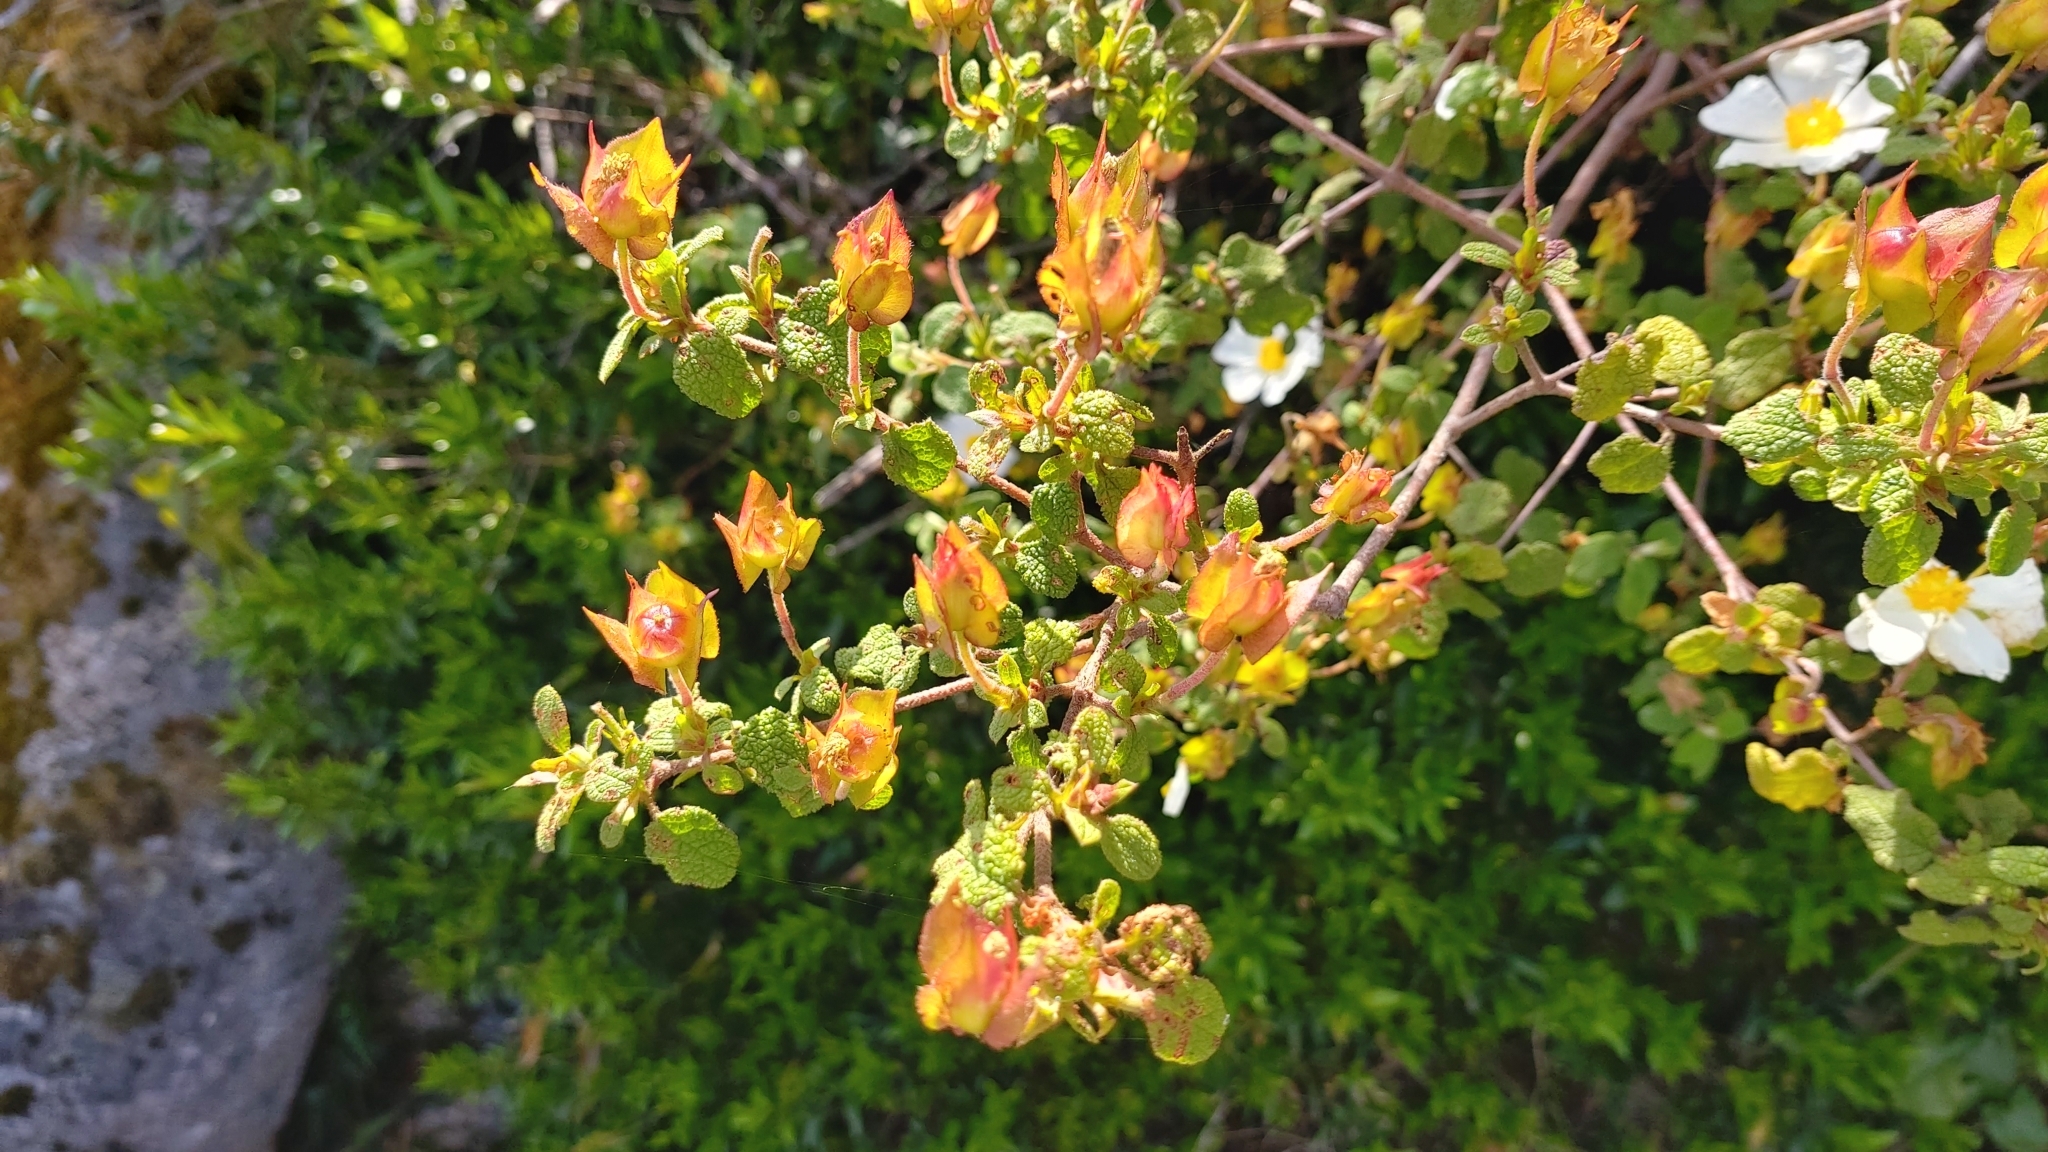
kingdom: Plantae
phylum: Tracheophyta
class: Magnoliopsida
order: Malvales
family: Cistaceae
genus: Cistus
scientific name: Cistus salviifolius
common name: Salvia cistus
